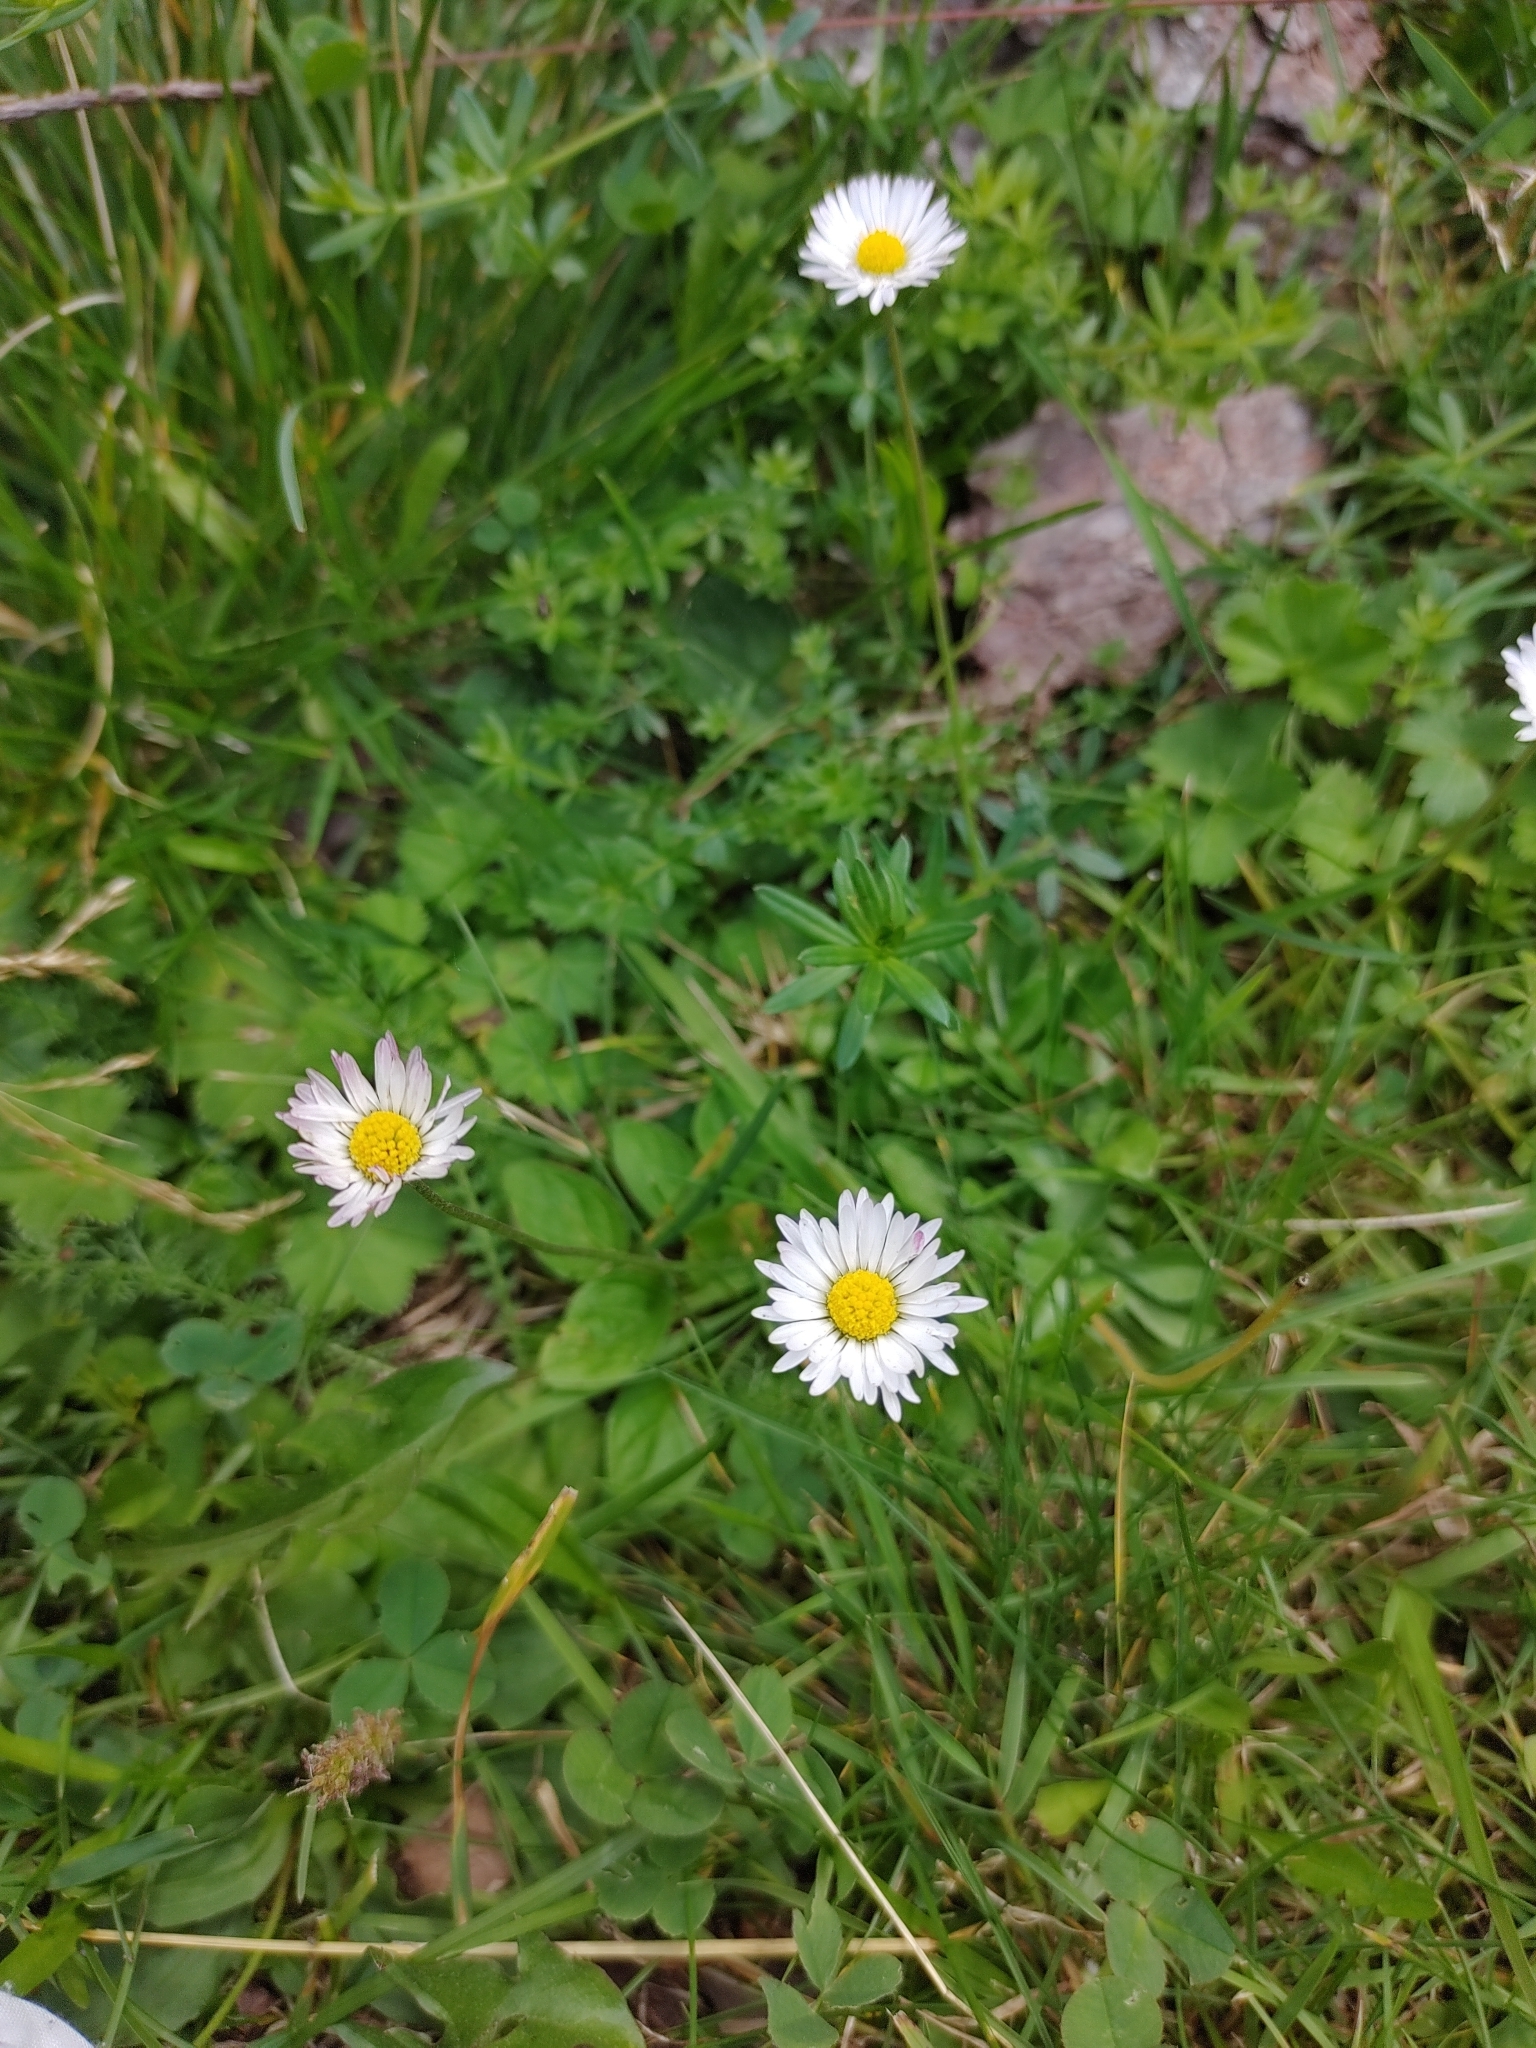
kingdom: Plantae
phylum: Tracheophyta
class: Magnoliopsida
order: Asterales
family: Asteraceae
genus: Bellis
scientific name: Bellis perennis
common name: Lawndaisy
